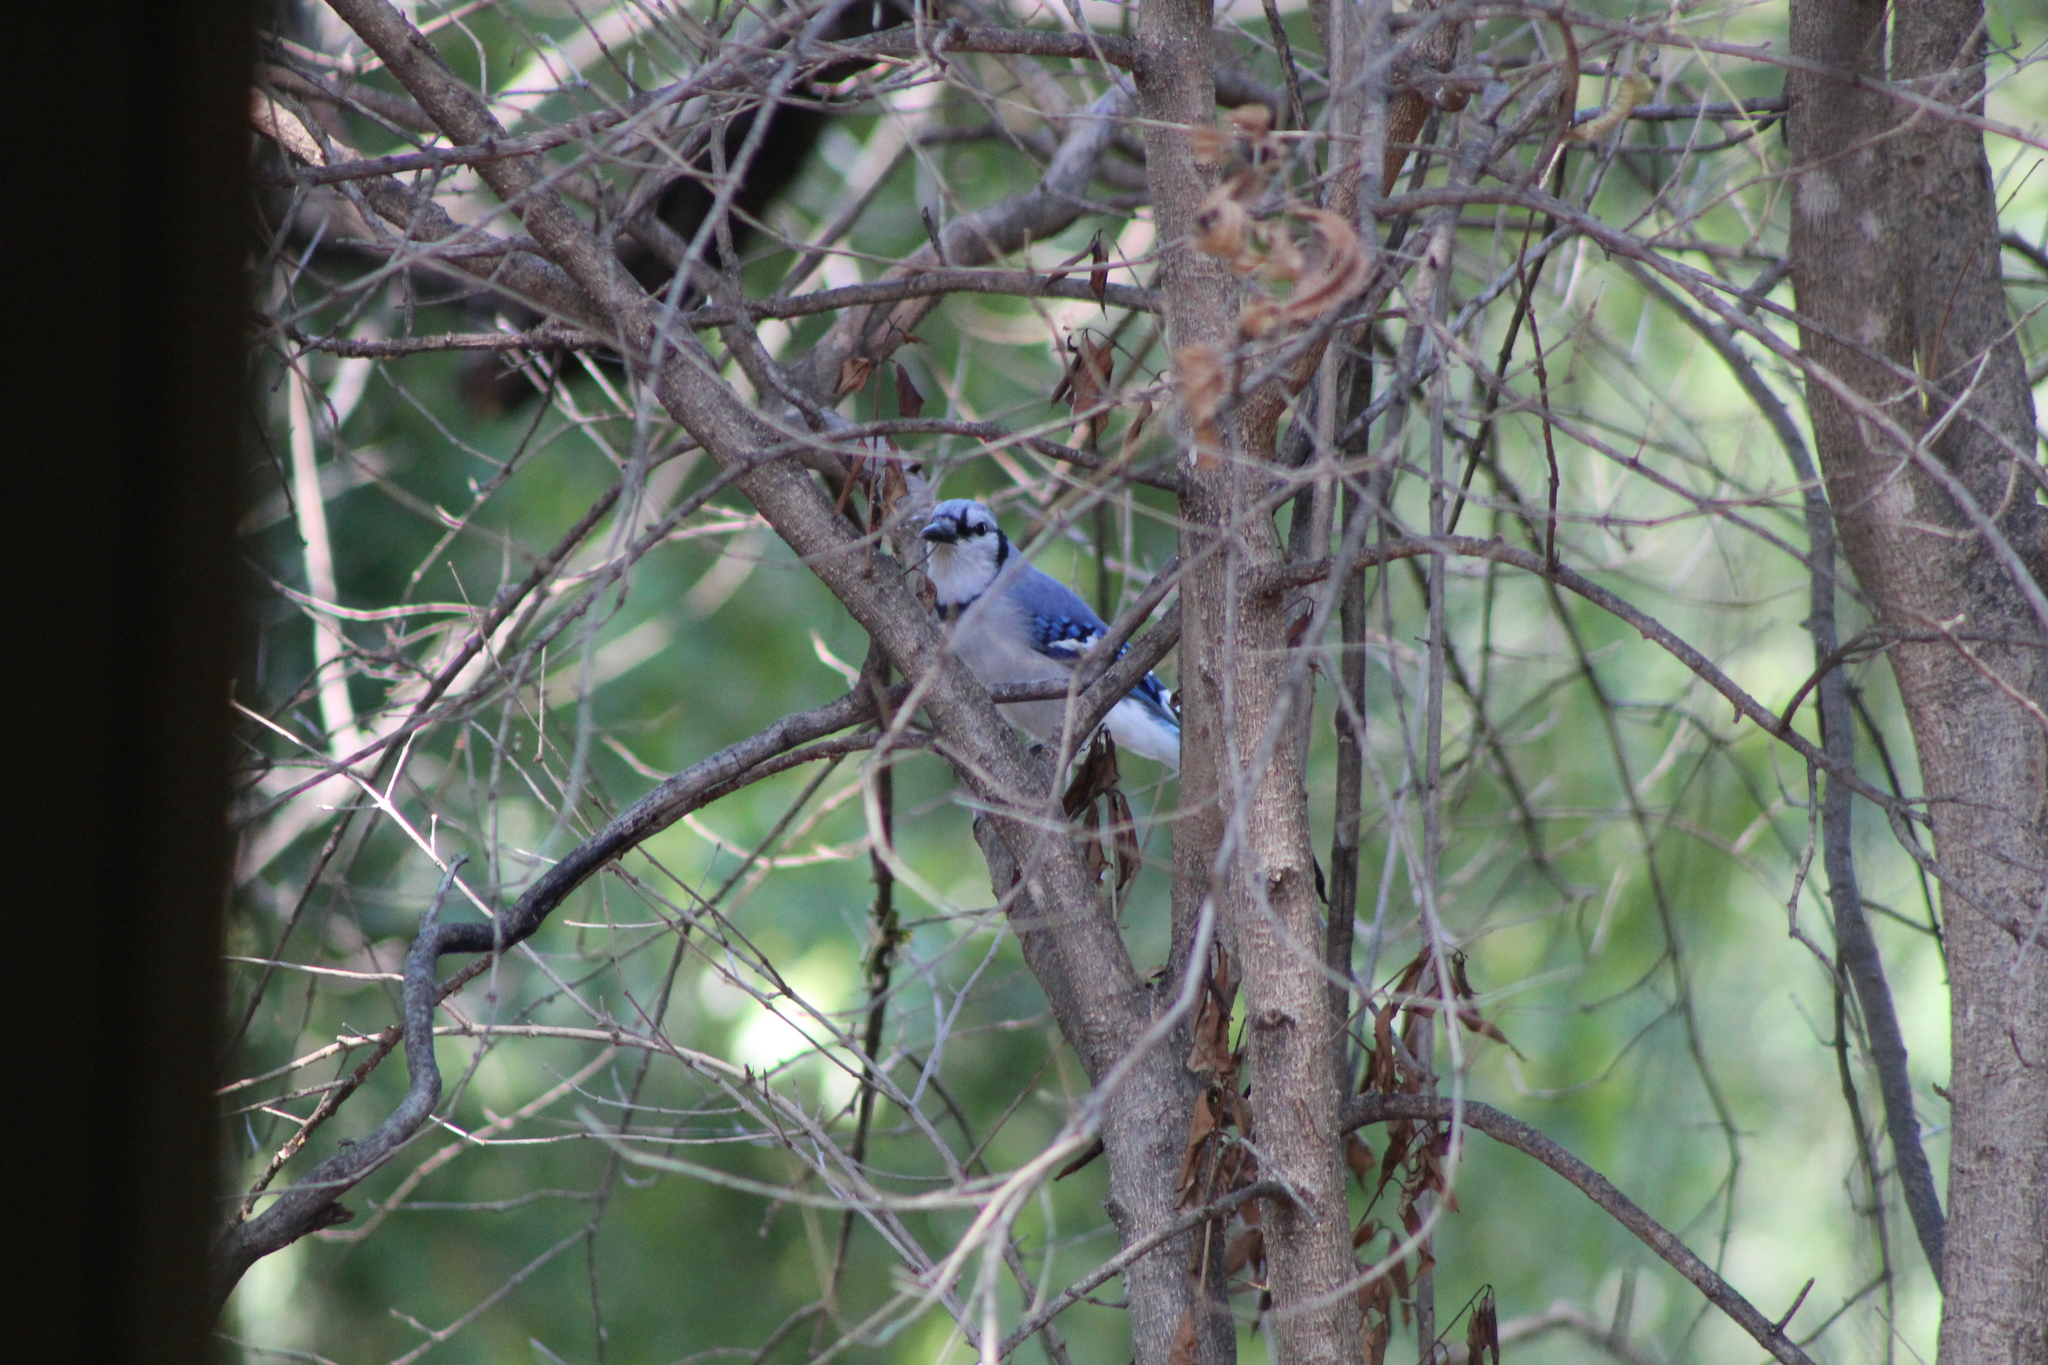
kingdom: Animalia
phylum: Chordata
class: Aves
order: Passeriformes
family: Corvidae
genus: Cyanocitta
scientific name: Cyanocitta cristata
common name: Blue jay
